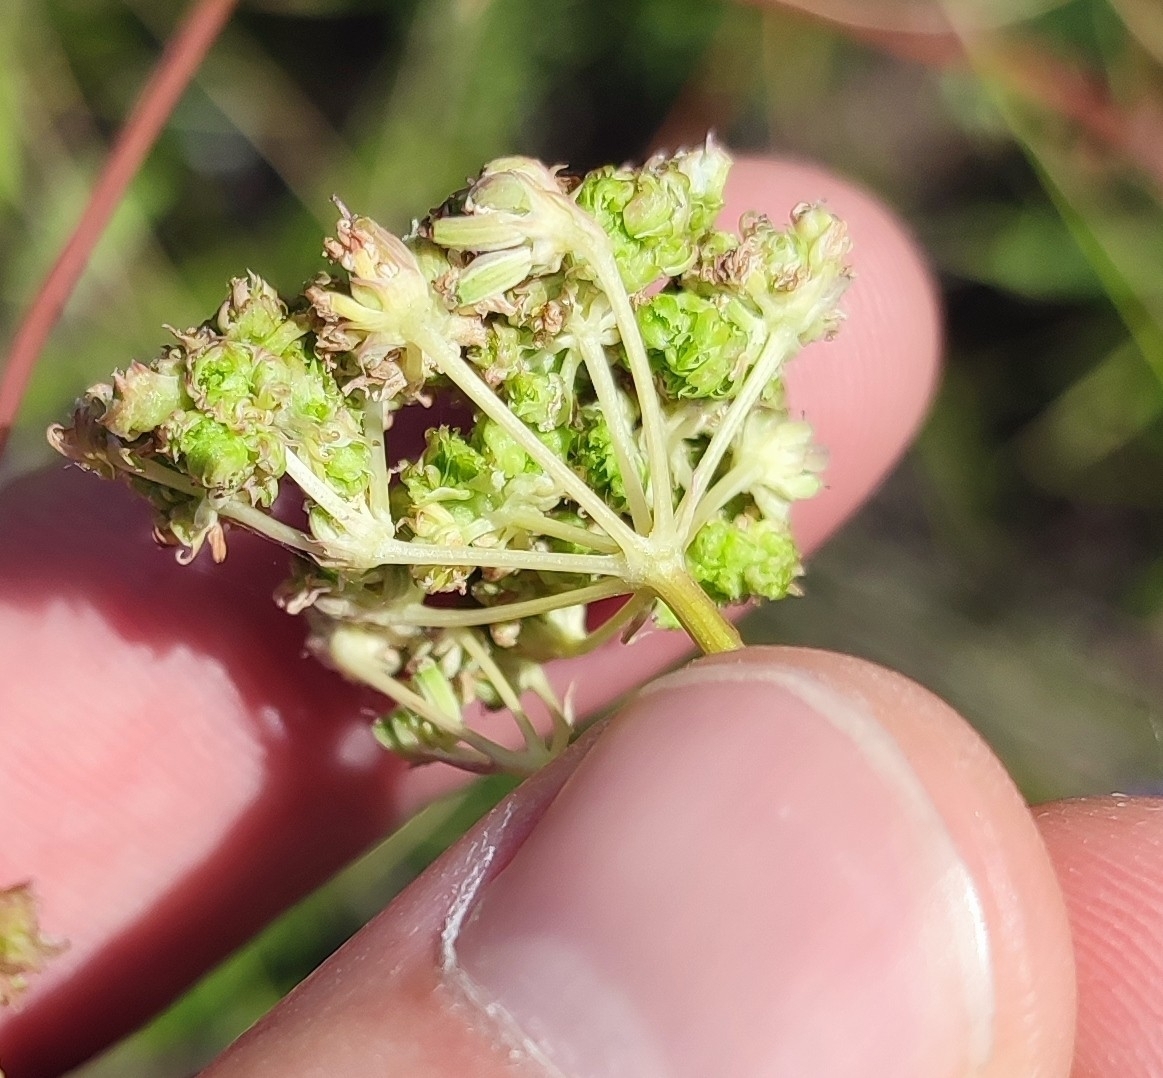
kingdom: Plantae
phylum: Tracheophyta
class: Magnoliopsida
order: Apiales
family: Apiaceae
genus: Seseli
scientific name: Seseli ledebourii
